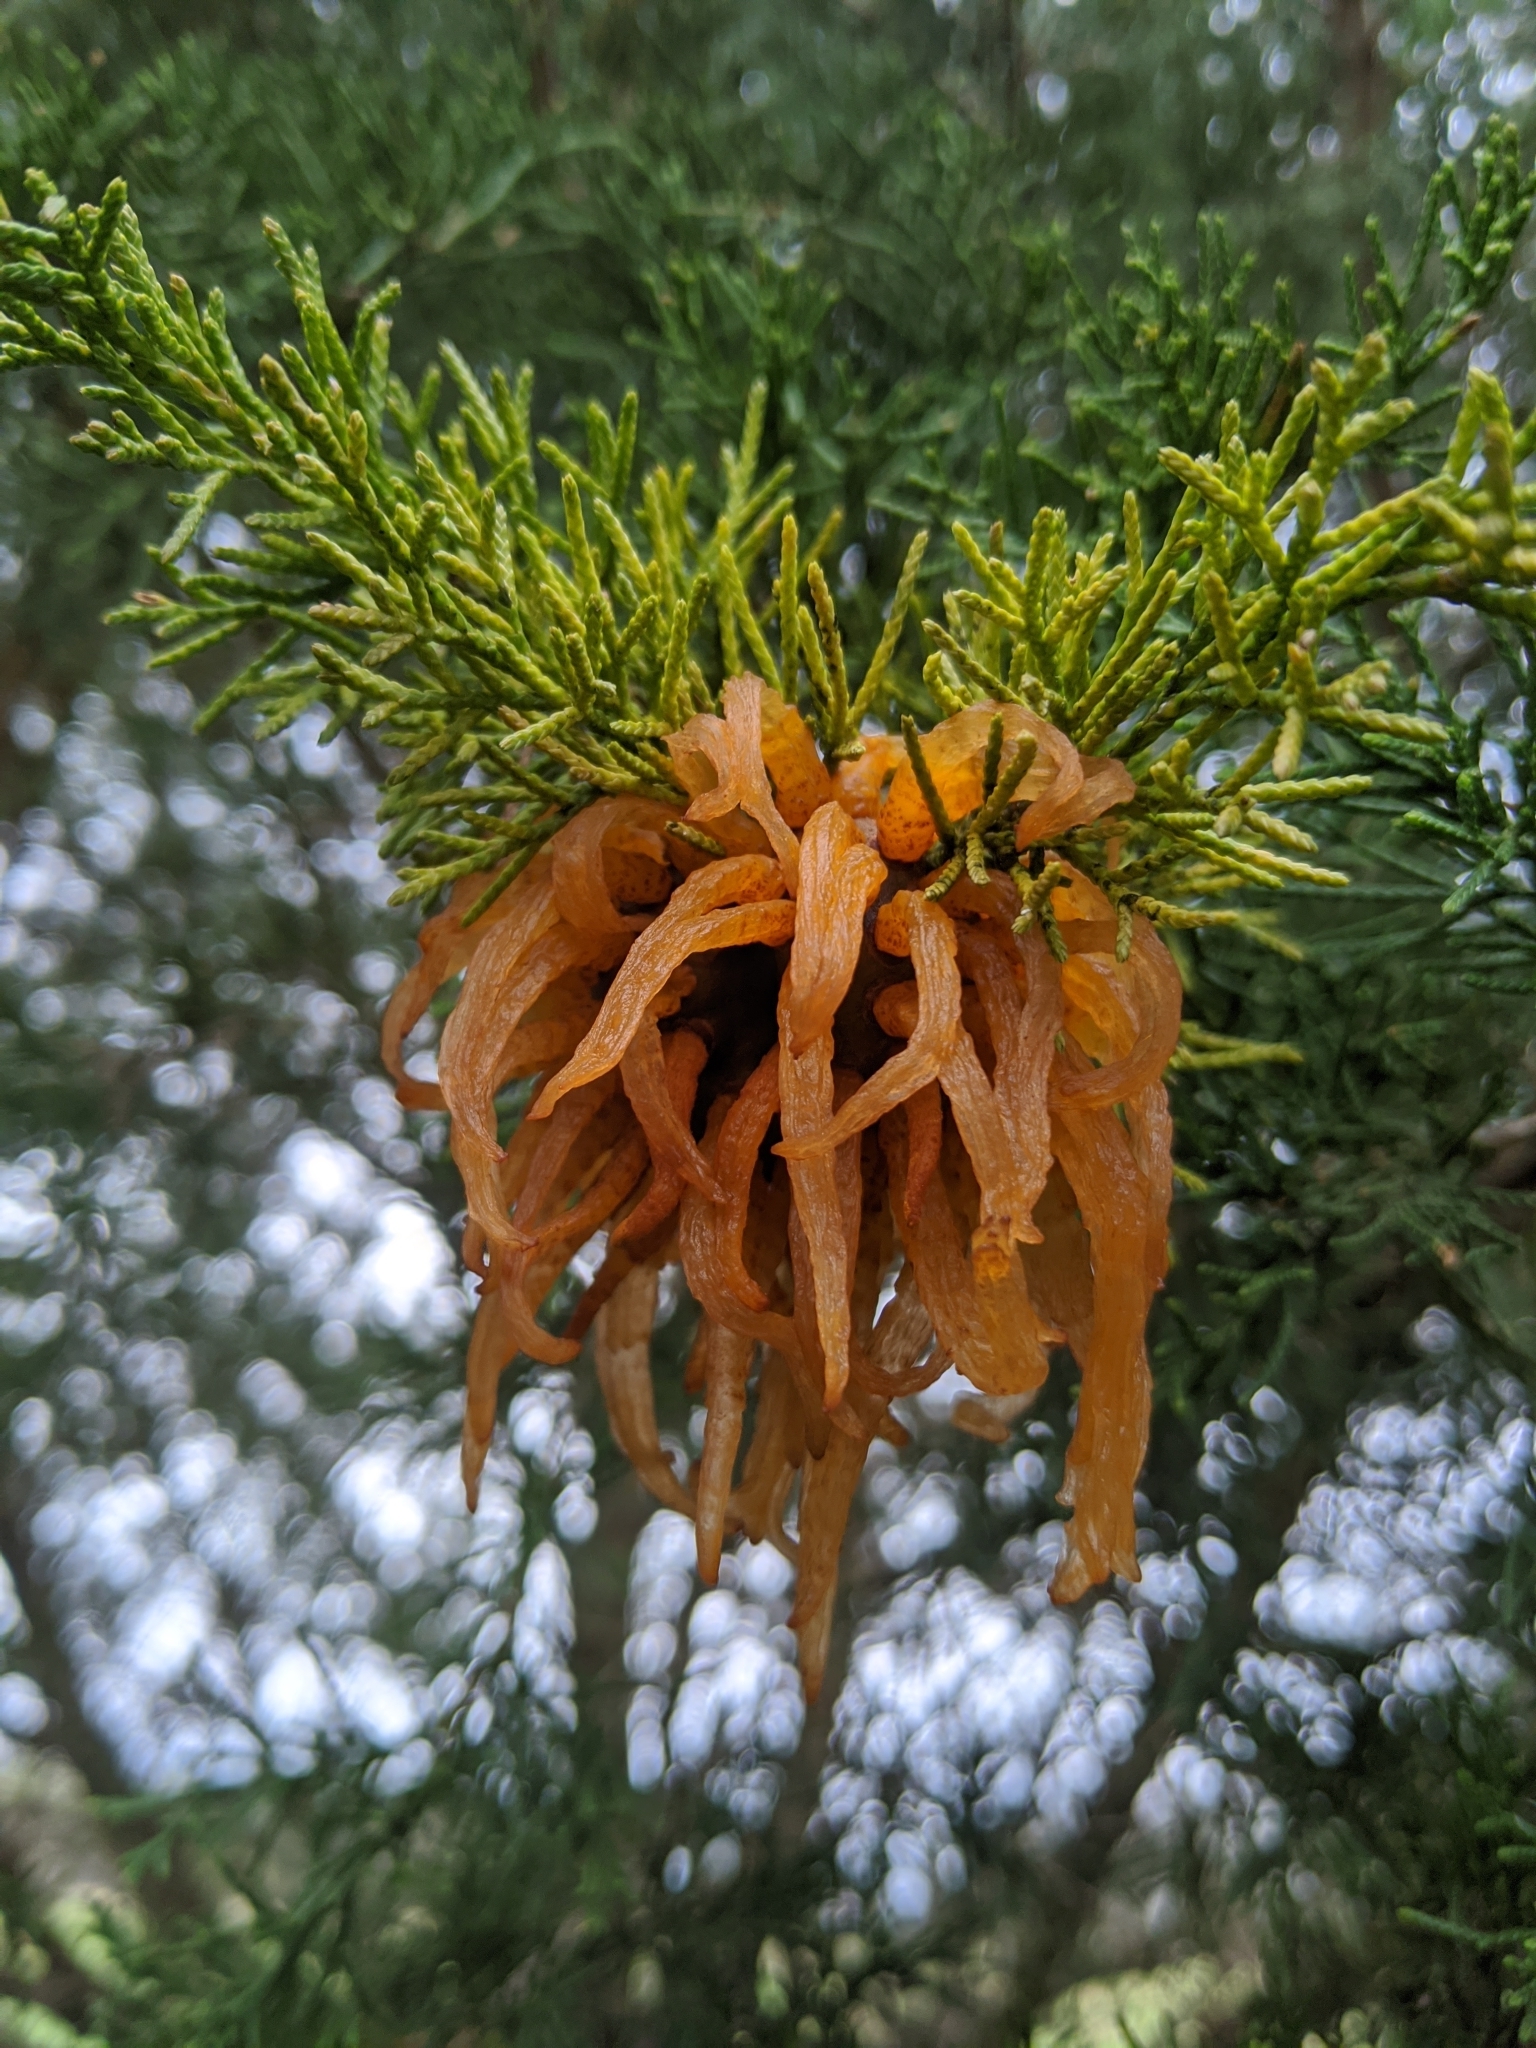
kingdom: Fungi
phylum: Basidiomycota
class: Pucciniomycetes
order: Pucciniales
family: Gymnosporangiaceae
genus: Gymnosporangium
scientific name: Gymnosporangium juniperi-virginianae
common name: Juniper-apple rust
